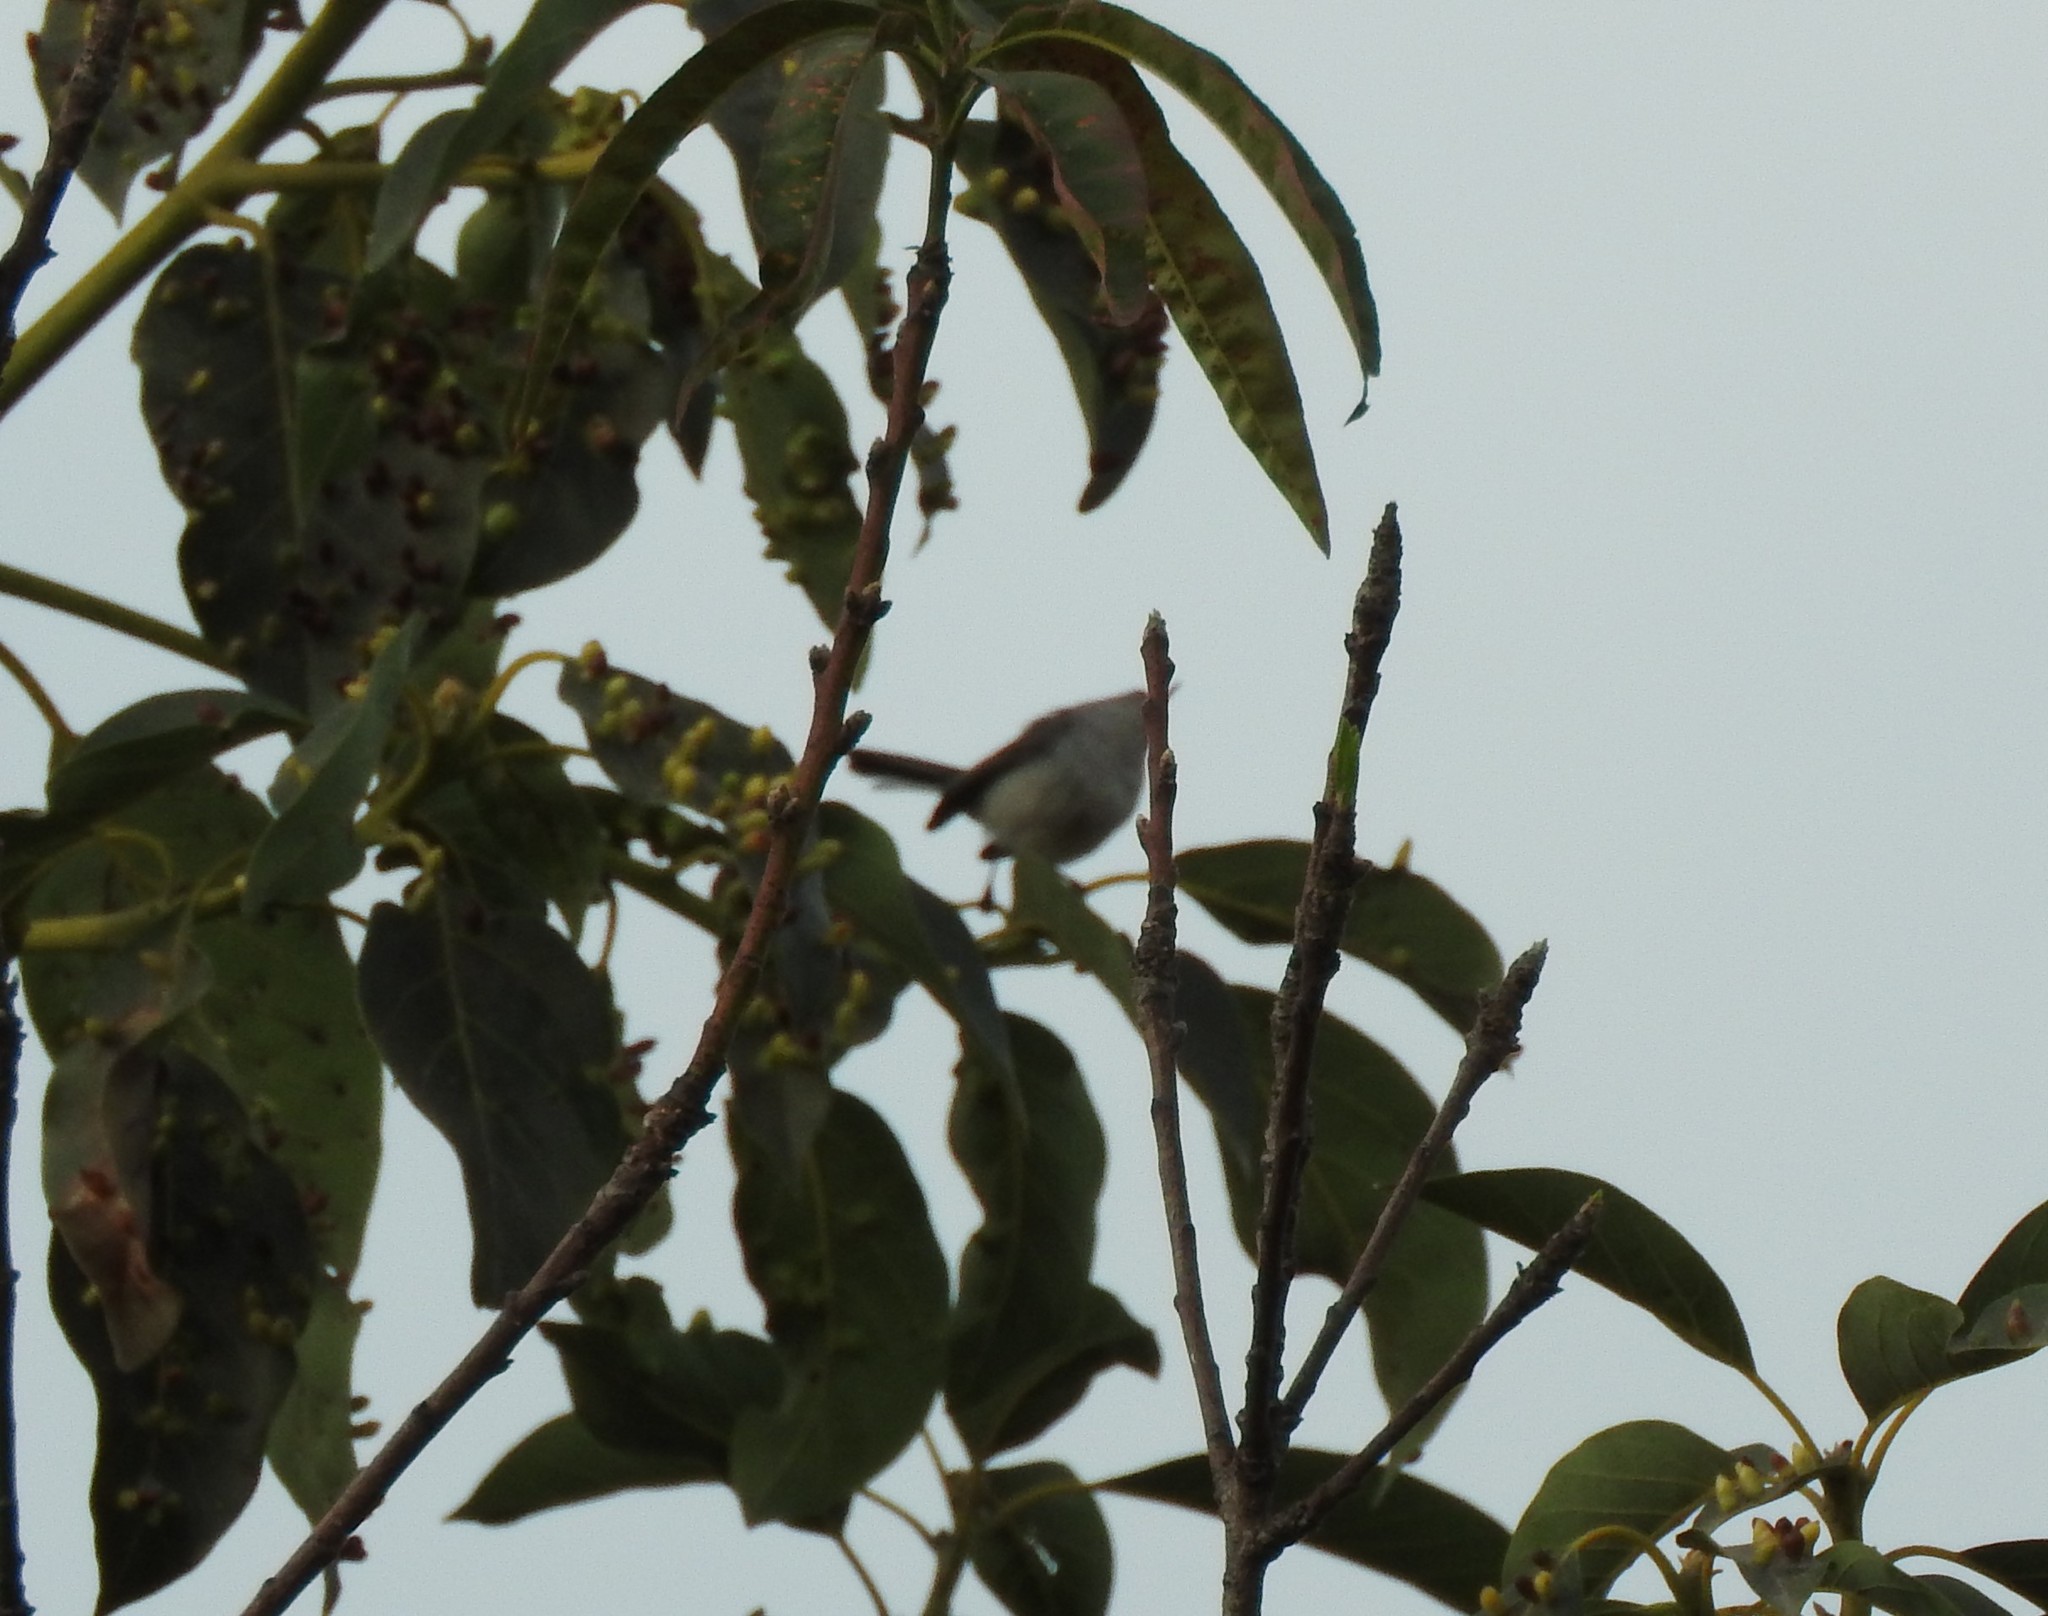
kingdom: Animalia
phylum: Chordata
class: Aves
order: Passeriformes
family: Polioptilidae
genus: Polioptila
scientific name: Polioptila caerulea
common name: Blue-gray gnatcatcher
